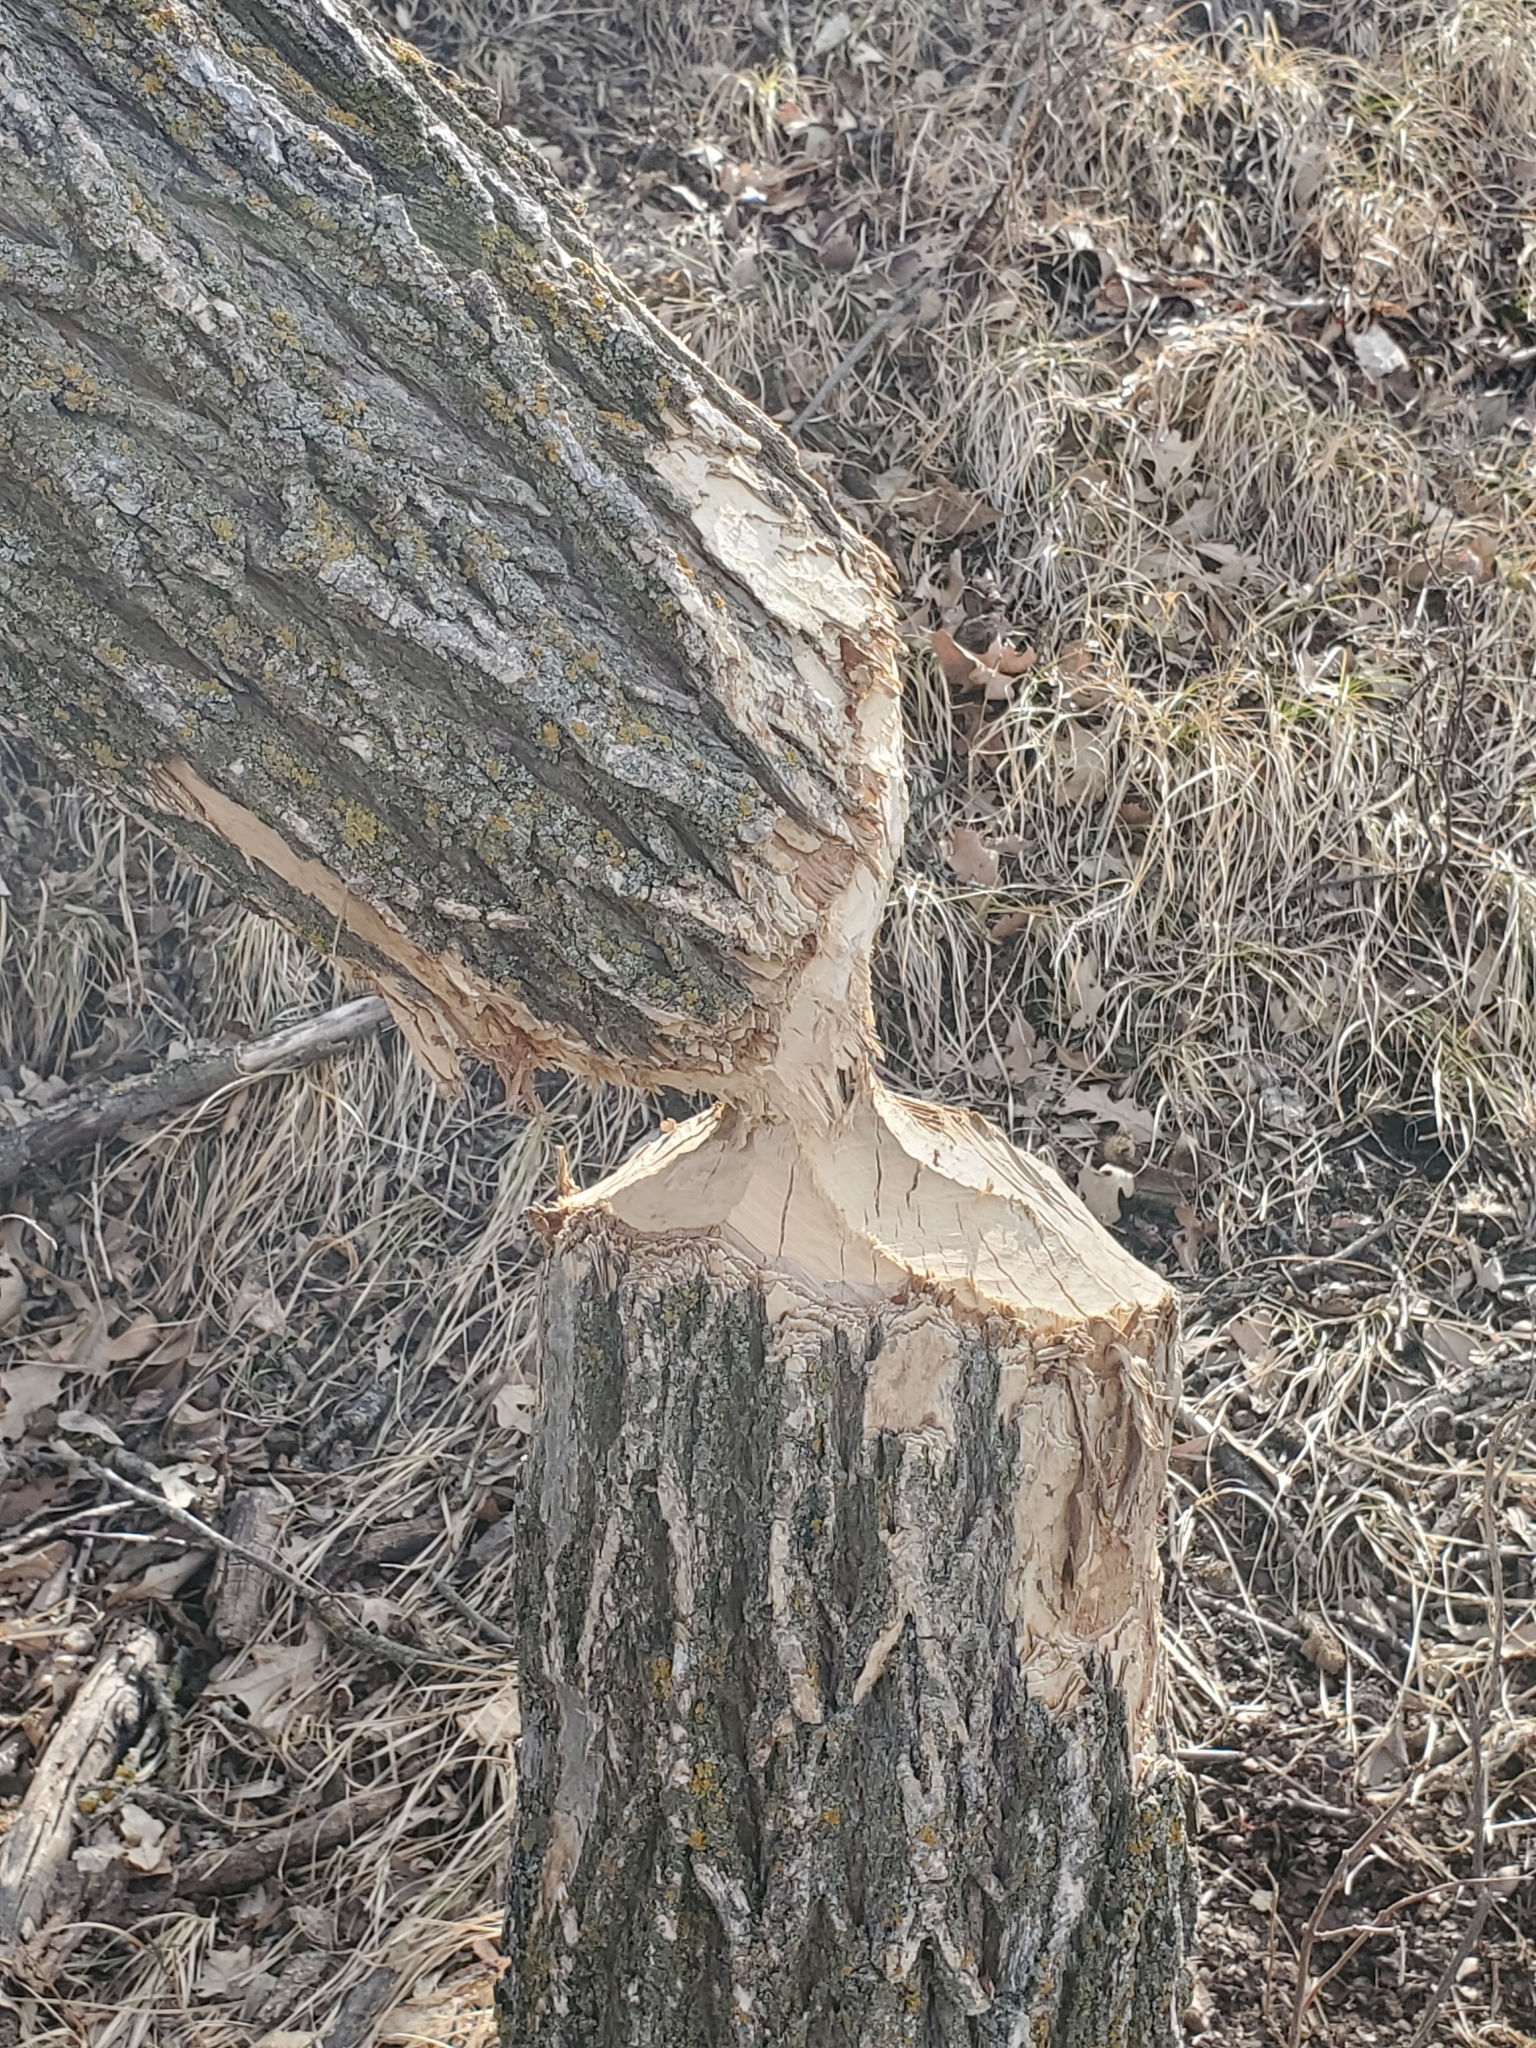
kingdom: Animalia
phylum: Chordata
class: Mammalia
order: Rodentia
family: Castoridae
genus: Castor
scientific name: Castor canadensis
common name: American beaver
